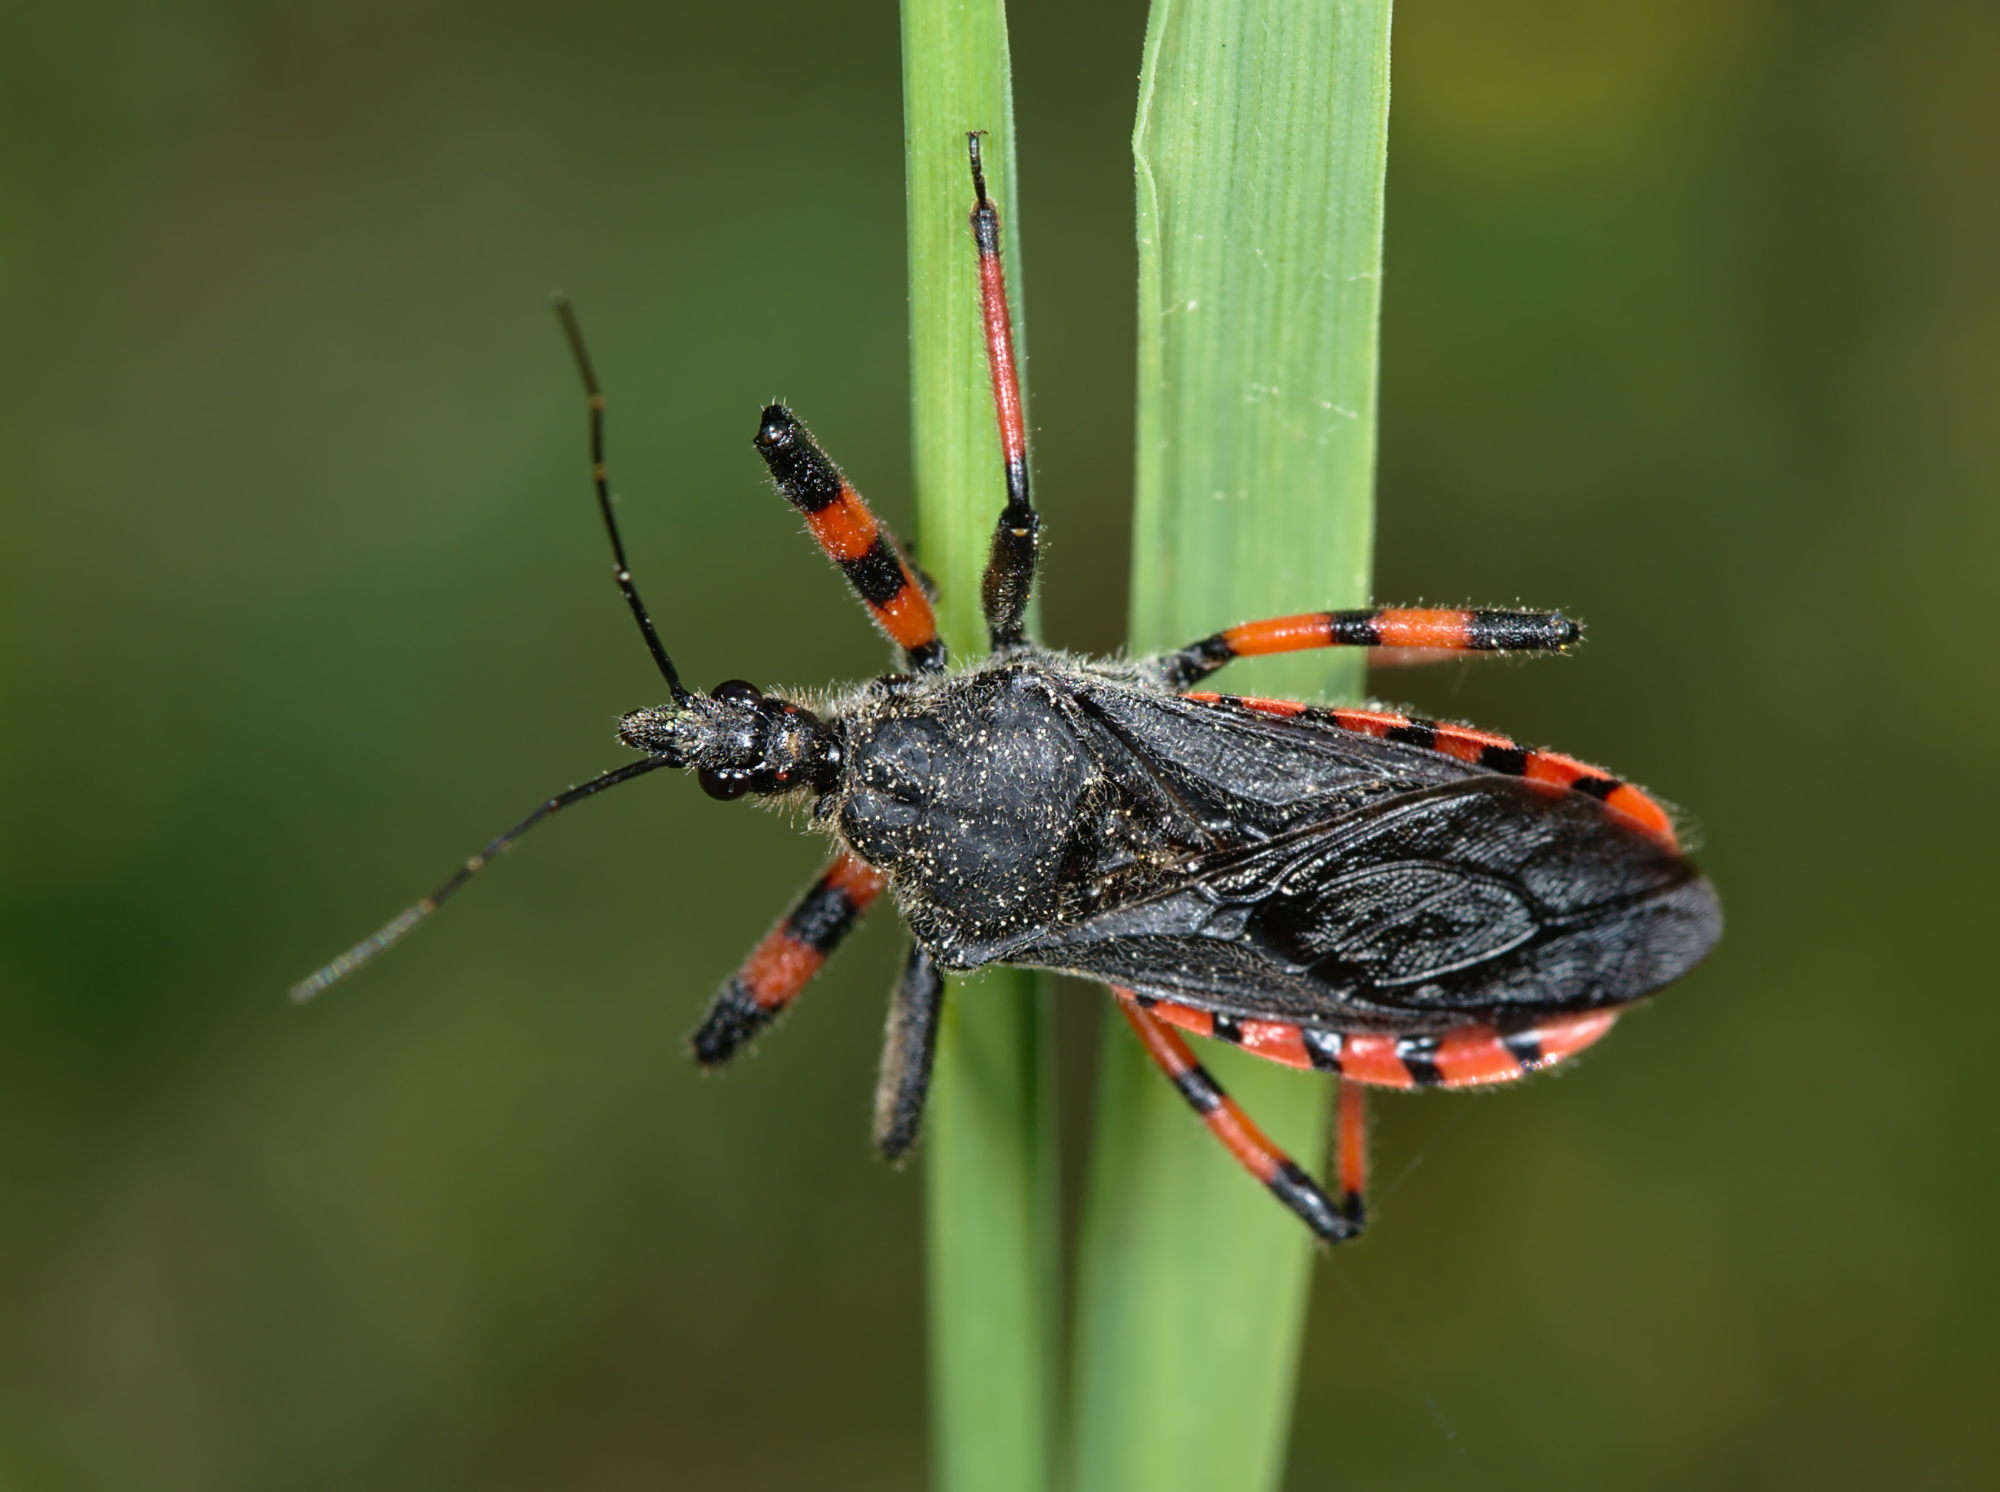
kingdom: Animalia
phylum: Arthropoda
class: Insecta
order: Hemiptera
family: Reduviidae
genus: Rhynocoris
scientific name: Rhynocoris annulatus
